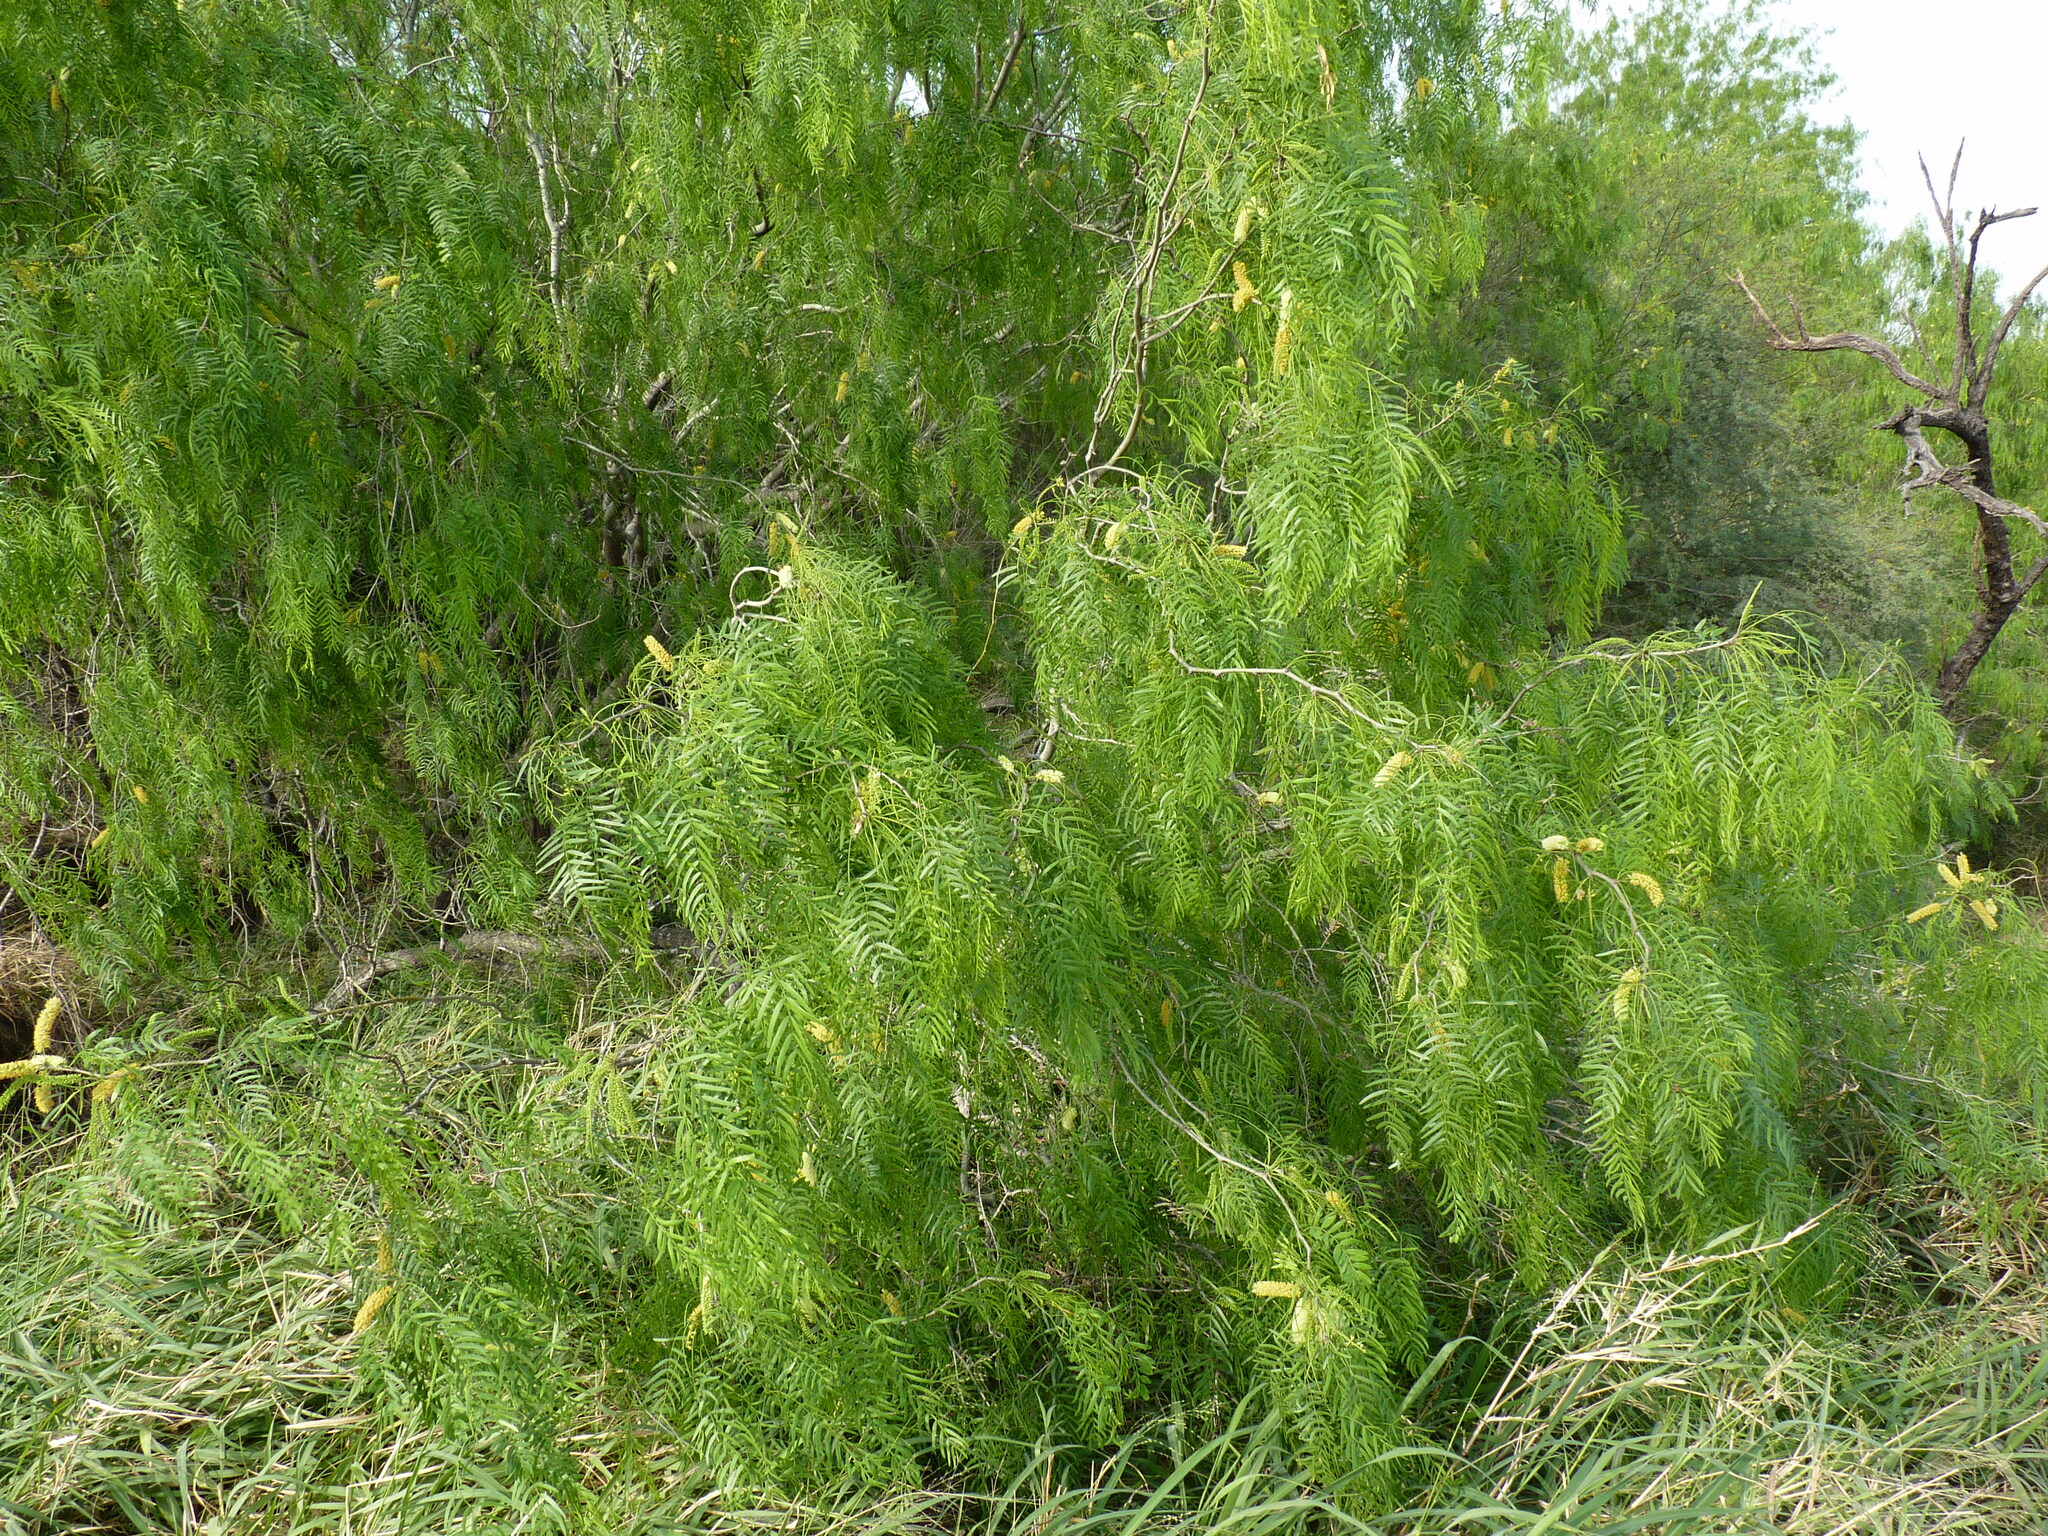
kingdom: Plantae
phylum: Tracheophyta
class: Magnoliopsida
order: Fabales
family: Fabaceae
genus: Prosopis
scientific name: Prosopis glandulosa
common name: Honey mesquite
